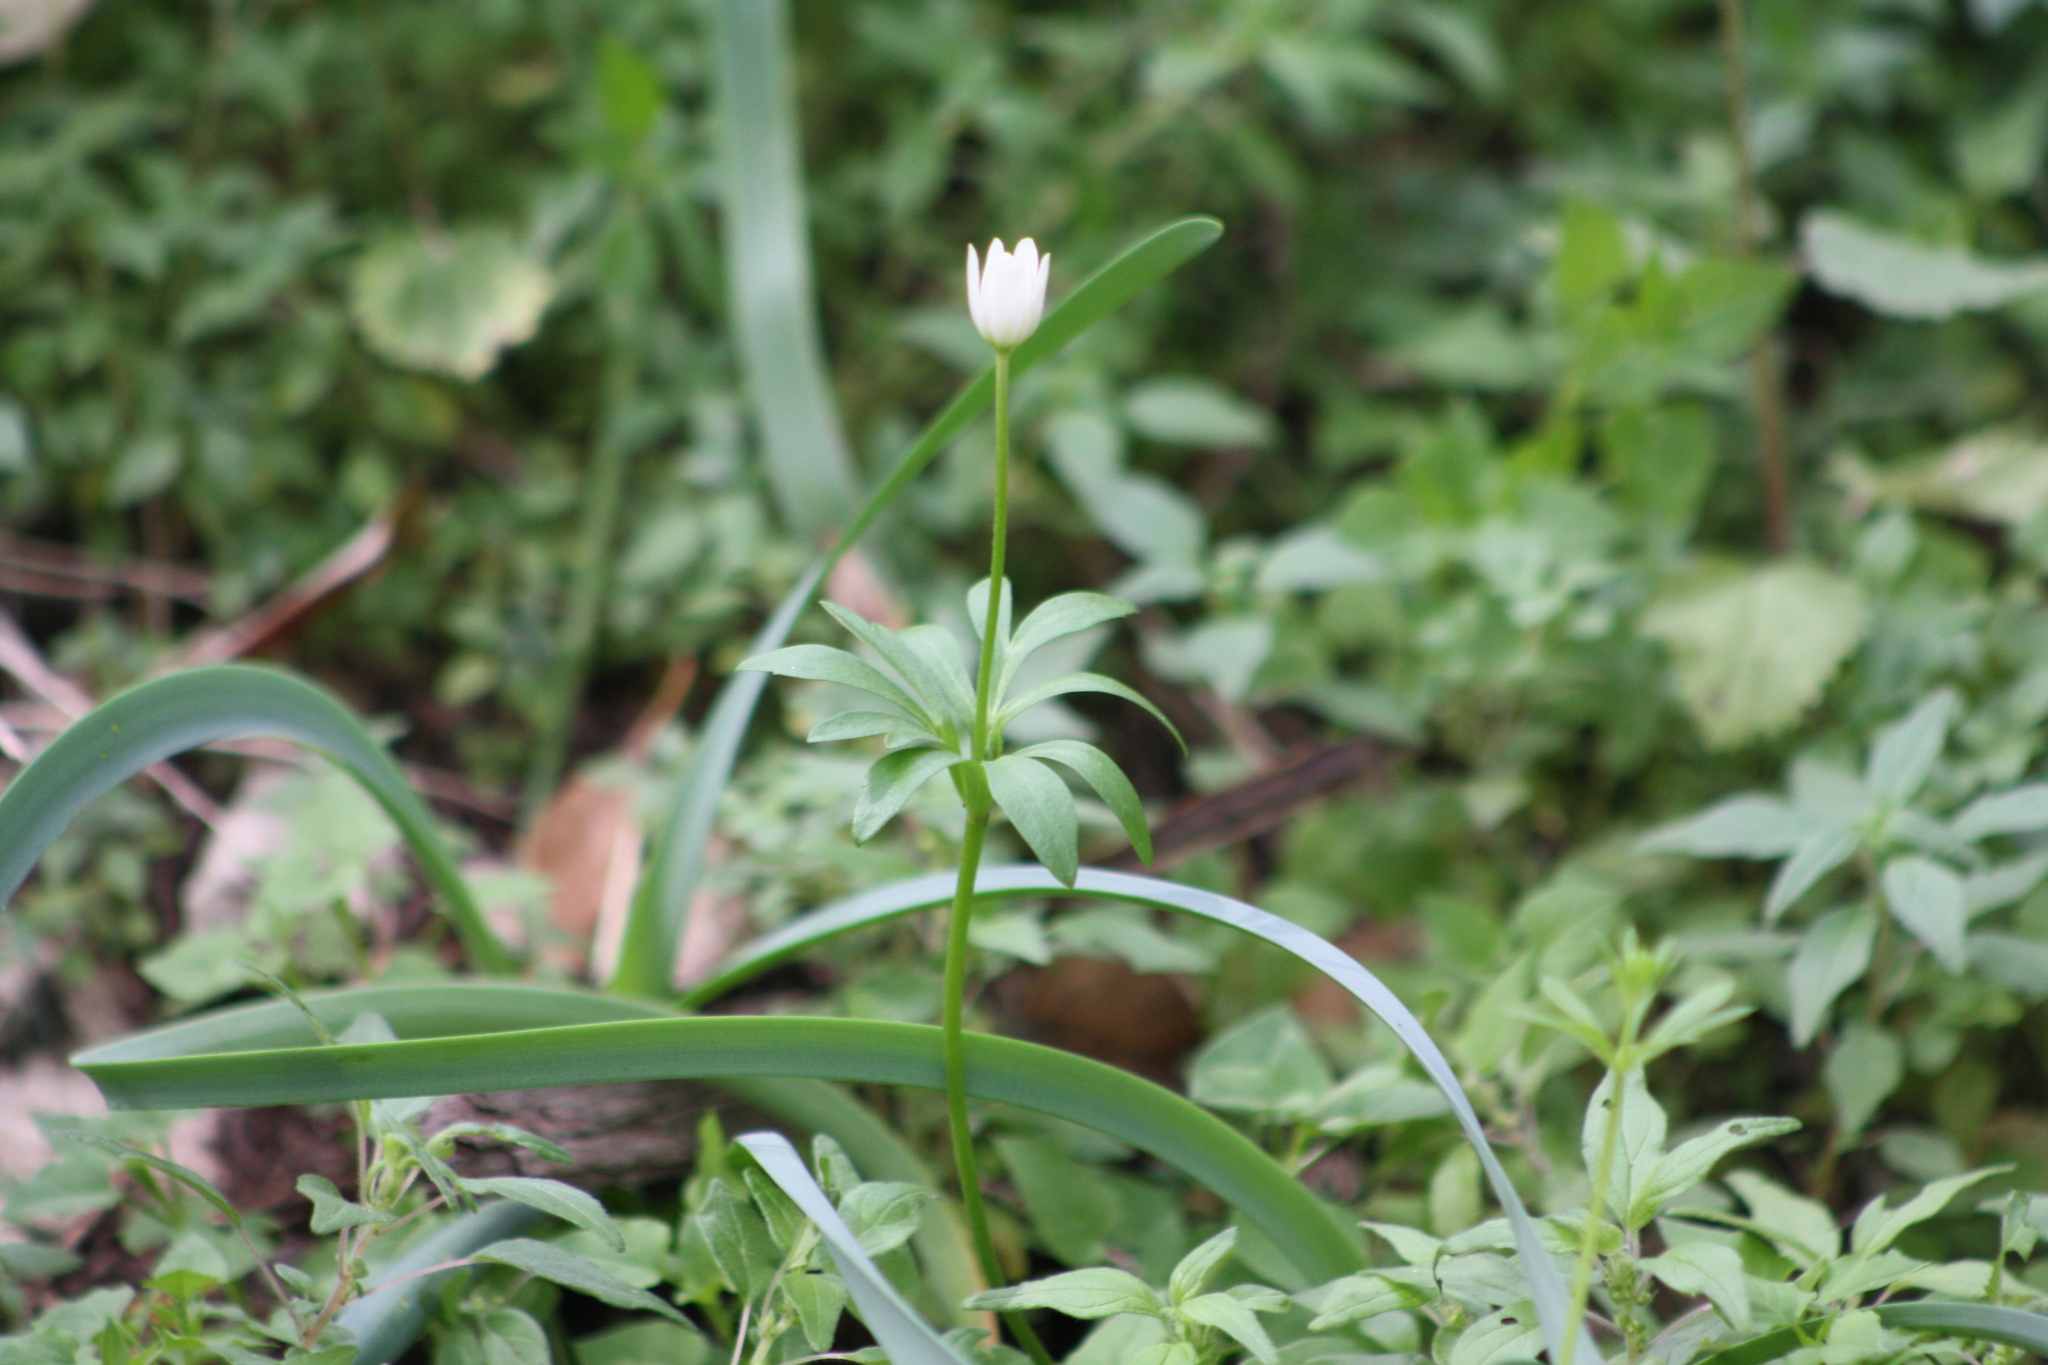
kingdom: Plantae
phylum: Tracheophyta
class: Magnoliopsida
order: Ranunculales
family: Ranunculaceae
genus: Anemone
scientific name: Anemone edwardsiana
